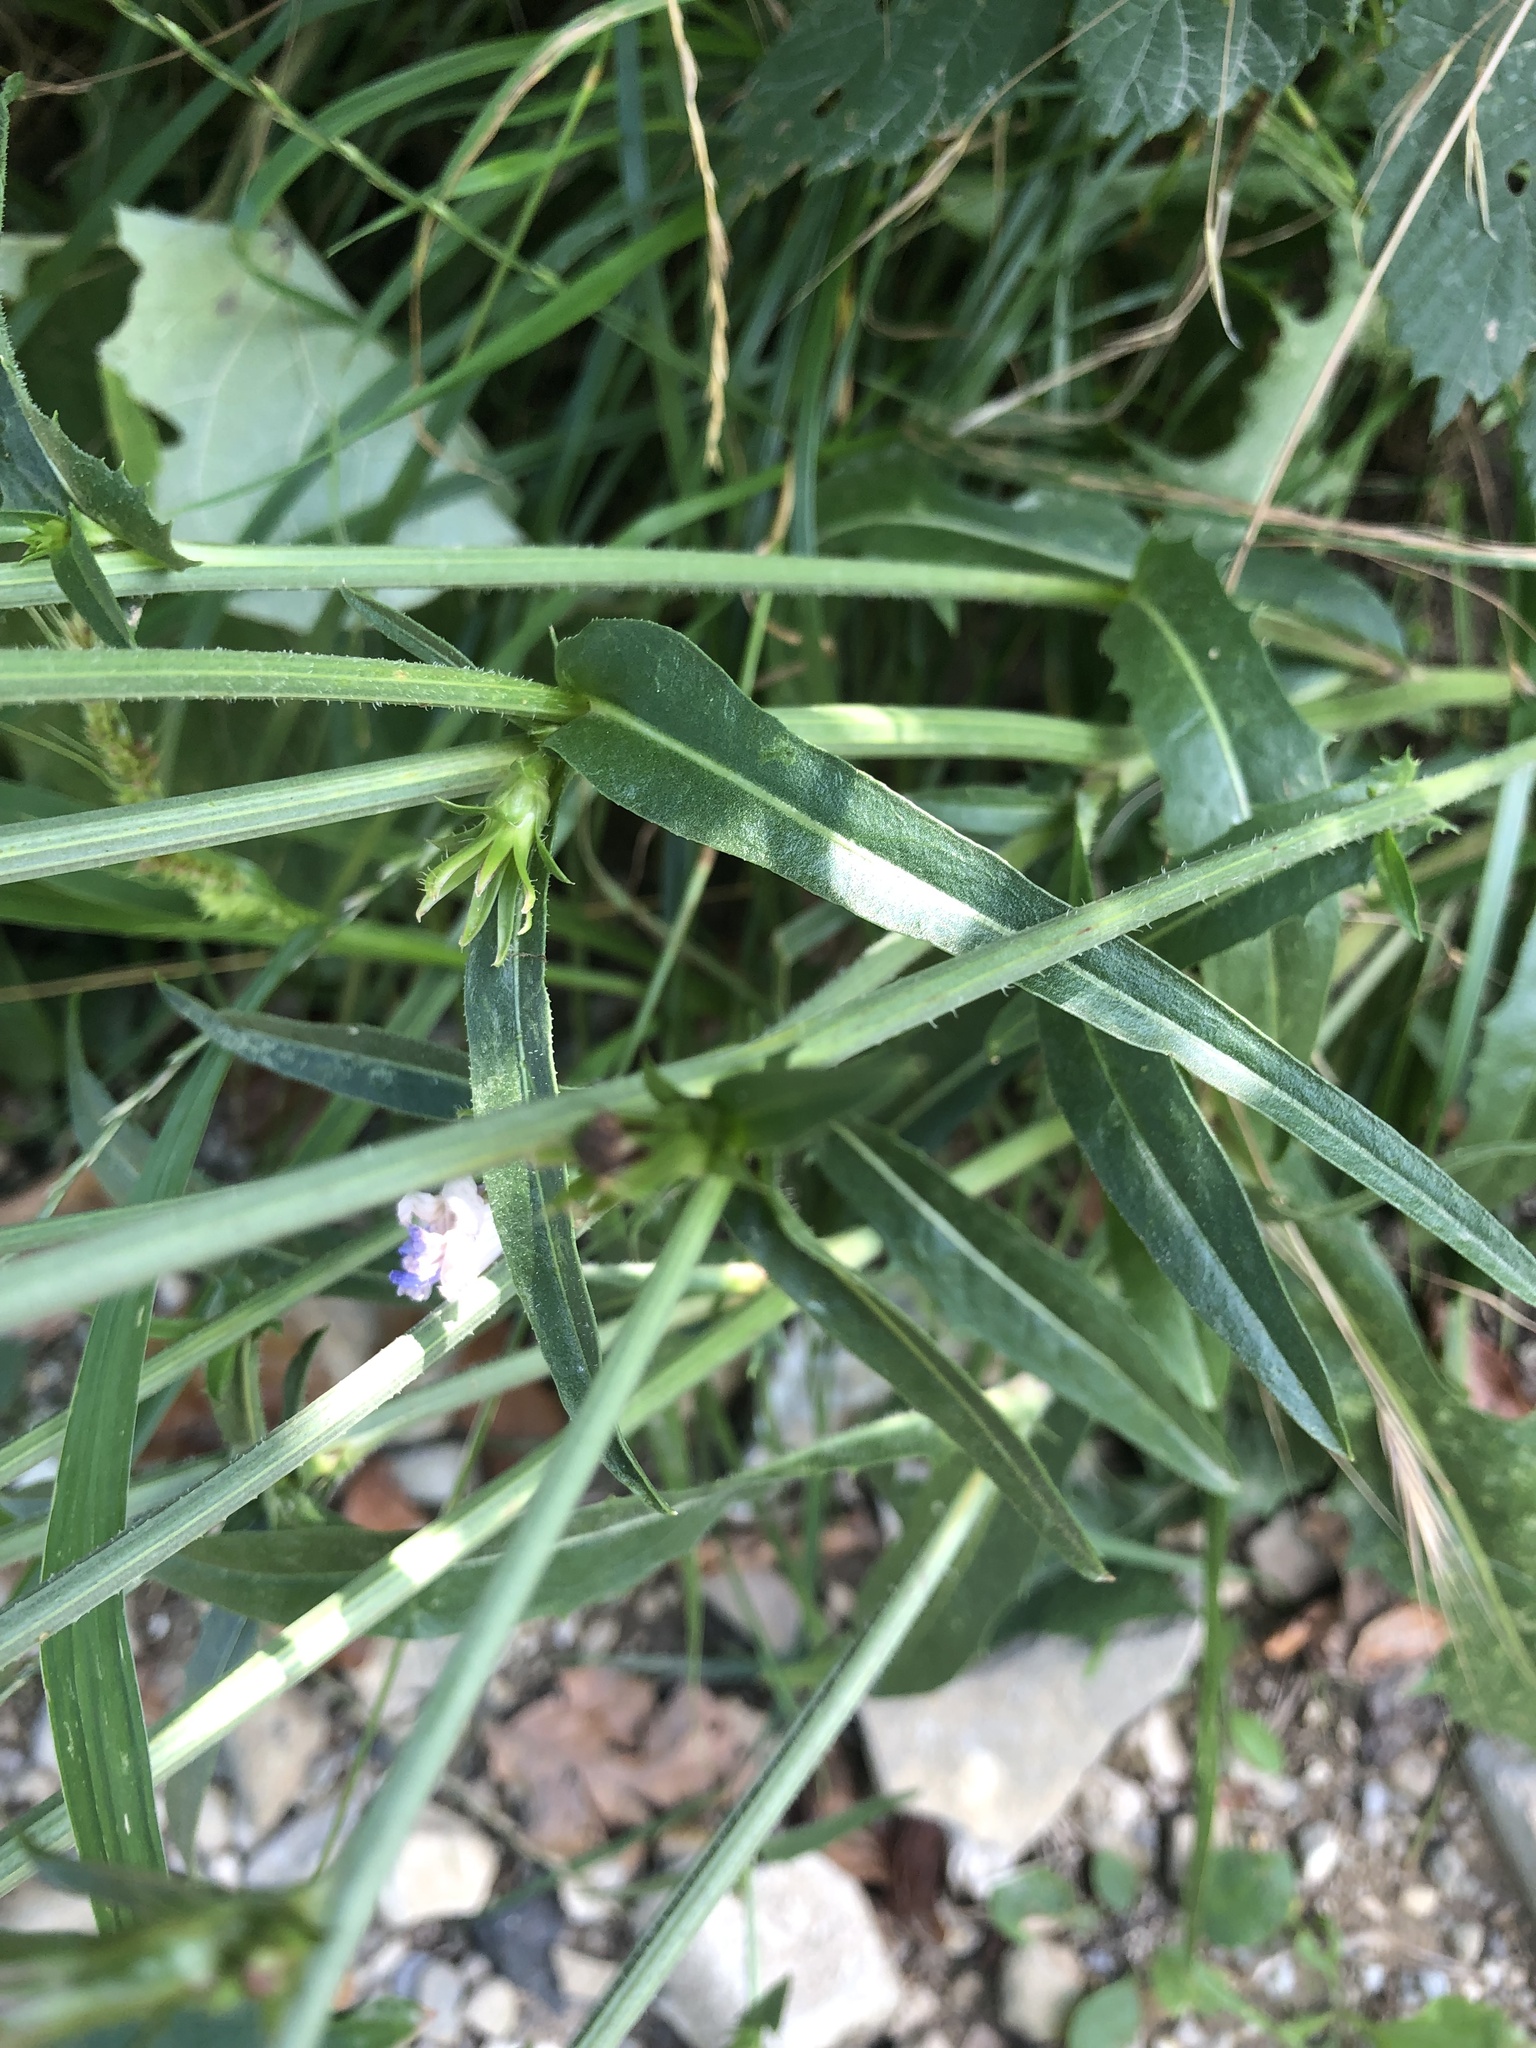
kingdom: Plantae
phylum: Tracheophyta
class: Magnoliopsida
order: Asterales
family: Asteraceae
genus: Cichorium
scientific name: Cichorium intybus
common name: Chicory
